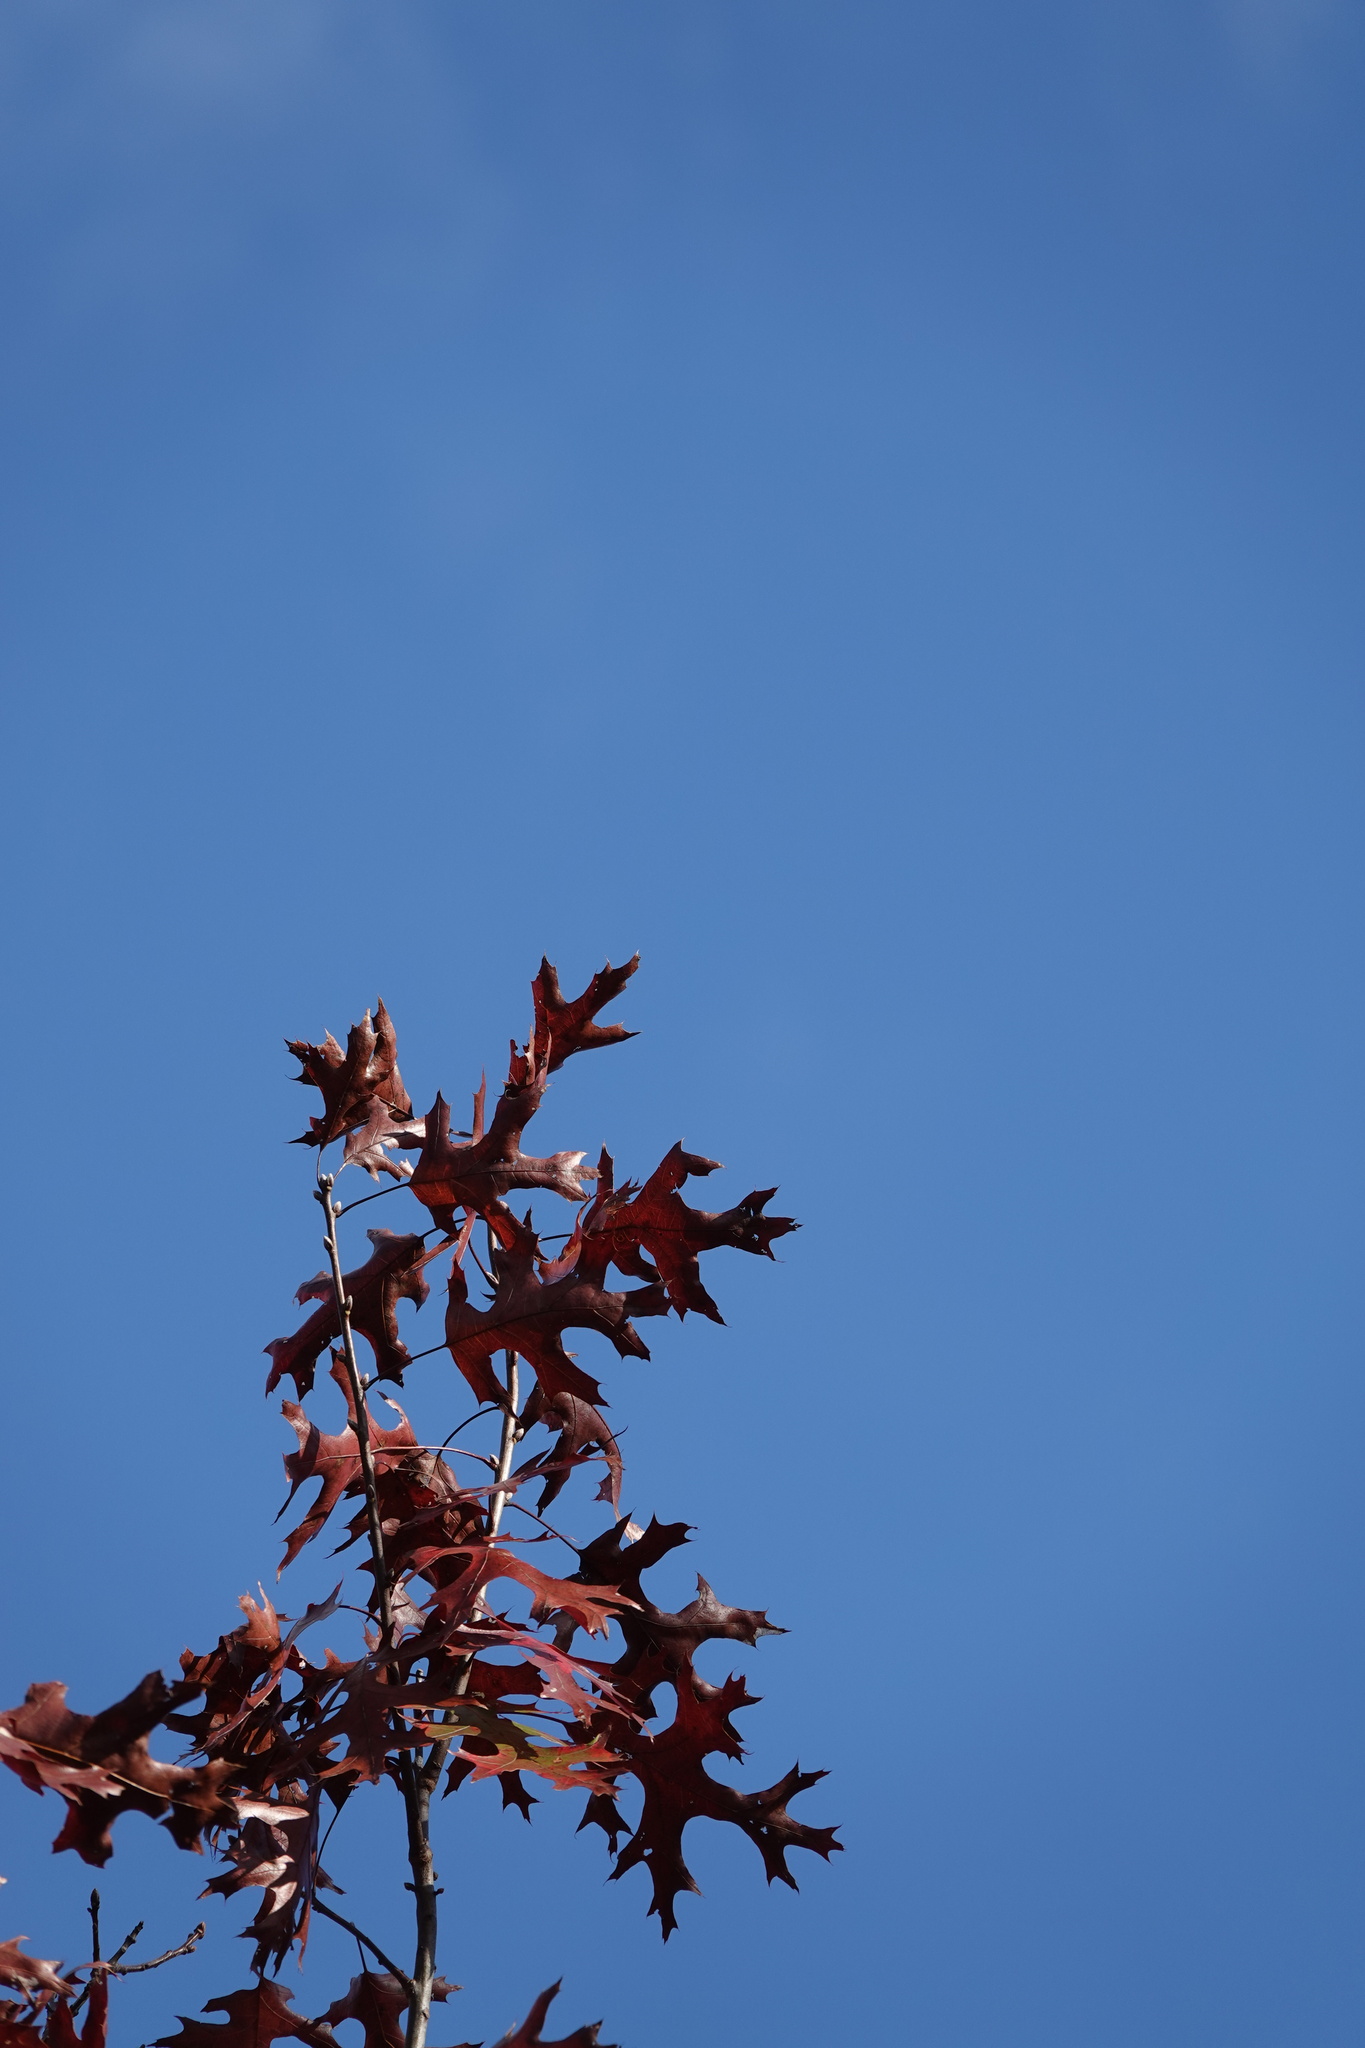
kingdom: Plantae
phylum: Tracheophyta
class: Magnoliopsida
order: Fagales
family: Fagaceae
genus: Quercus
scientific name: Quercus coccinea
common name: Scarlet oak
